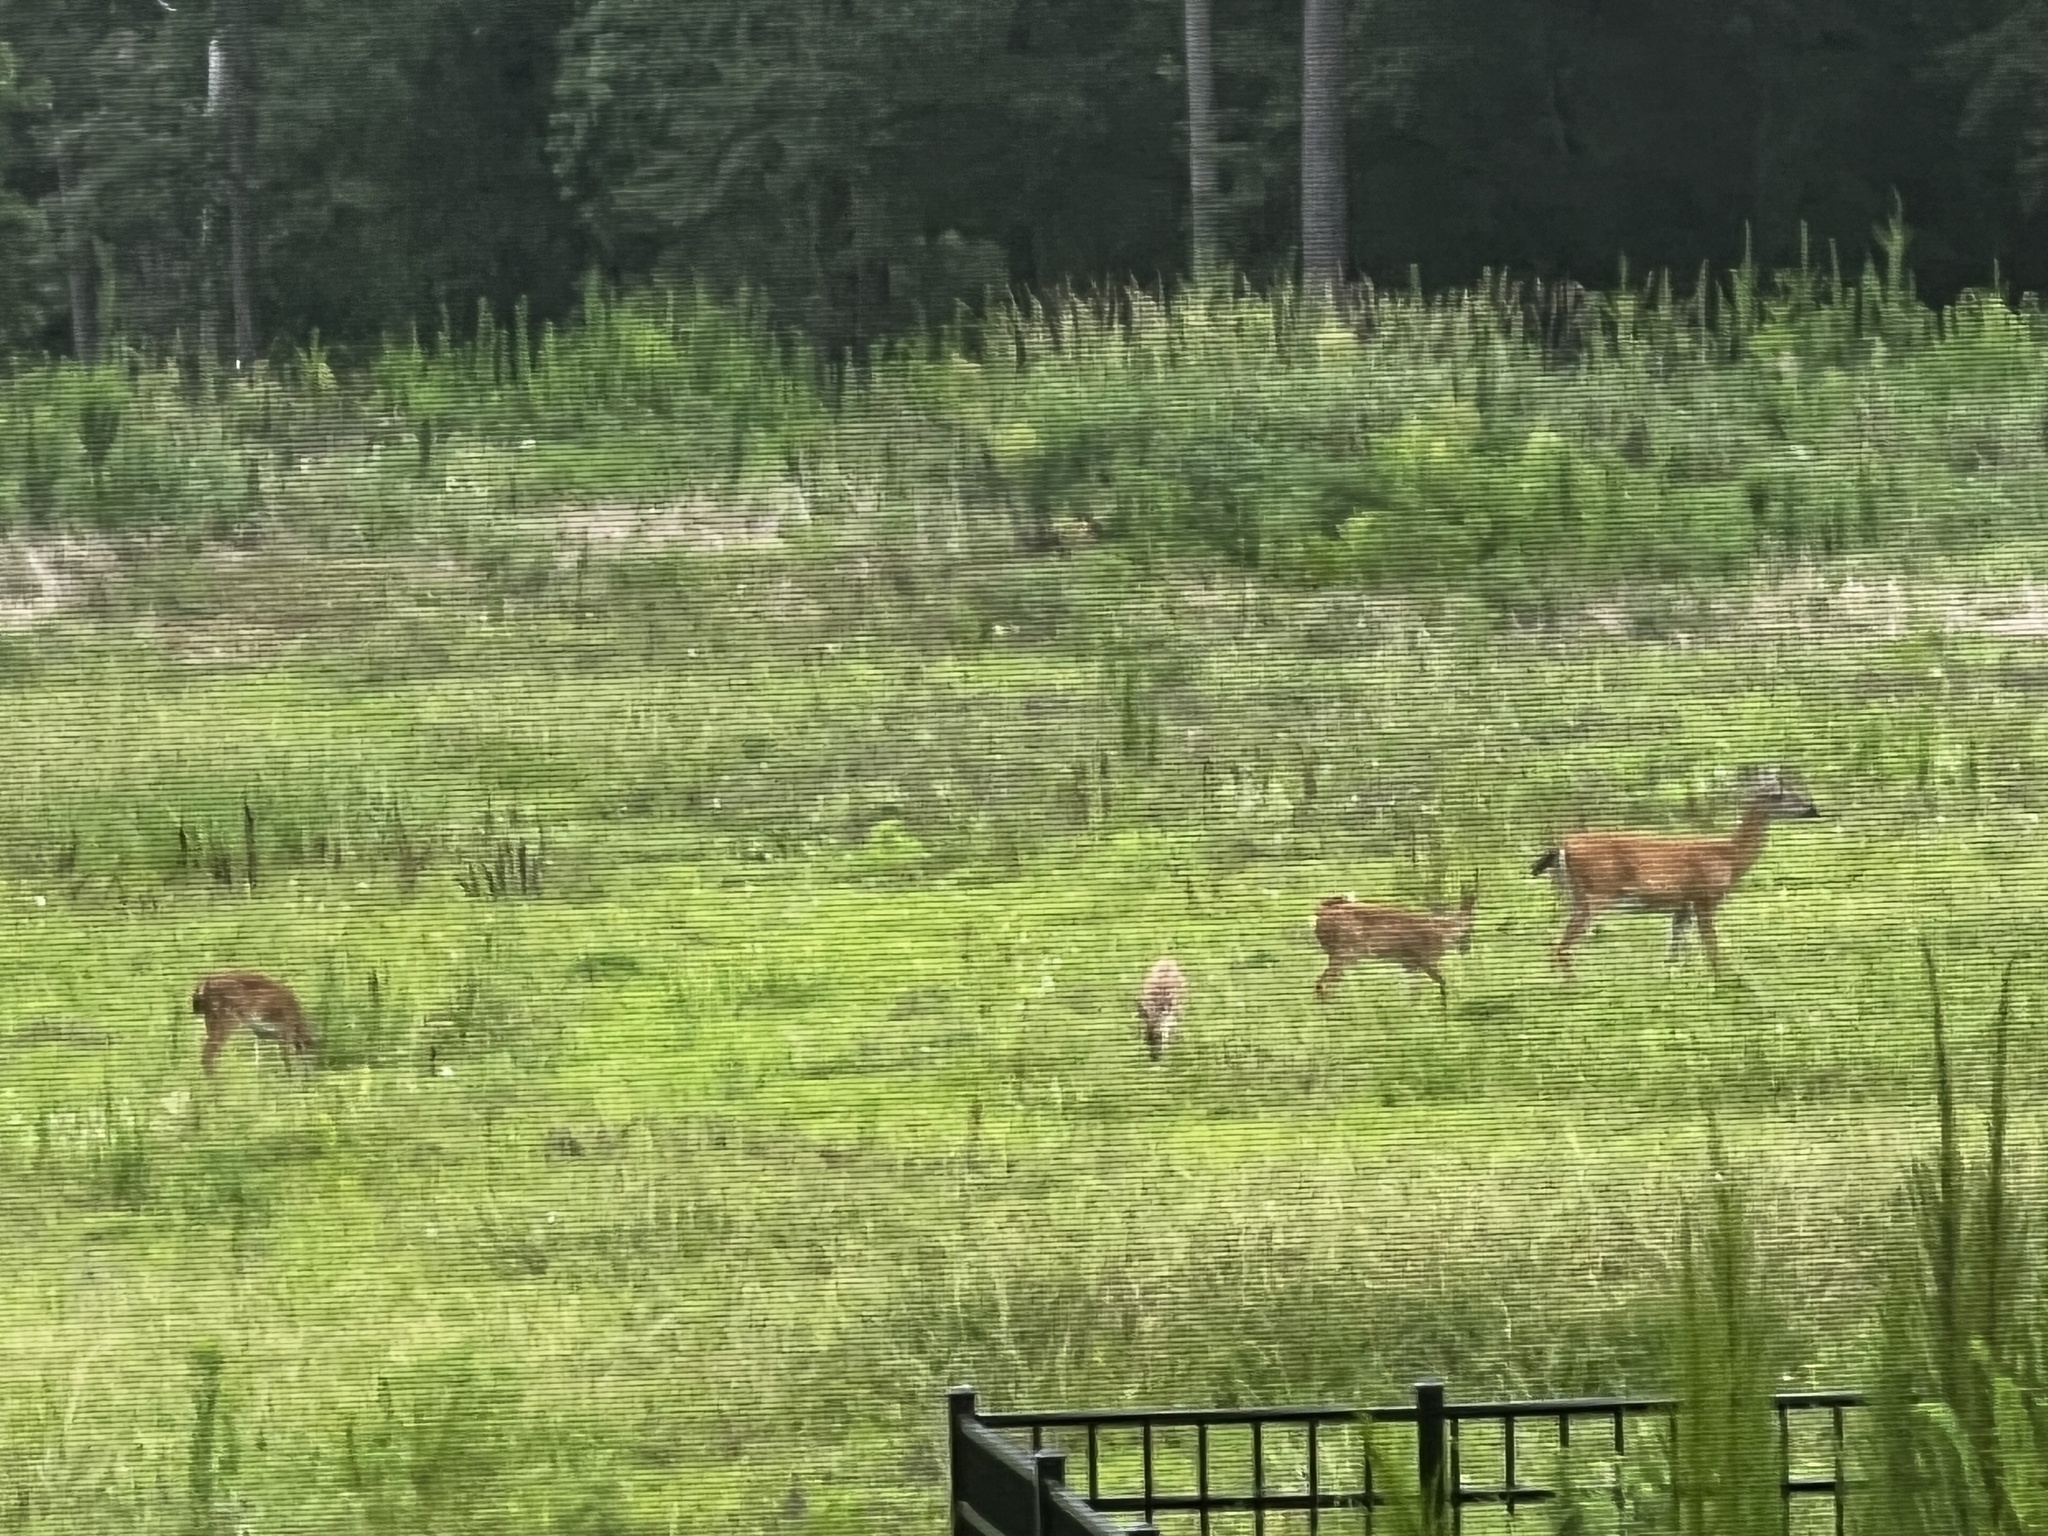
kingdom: Animalia
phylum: Chordata
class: Mammalia
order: Artiodactyla
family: Cervidae
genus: Odocoileus
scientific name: Odocoileus virginianus
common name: White-tailed deer
